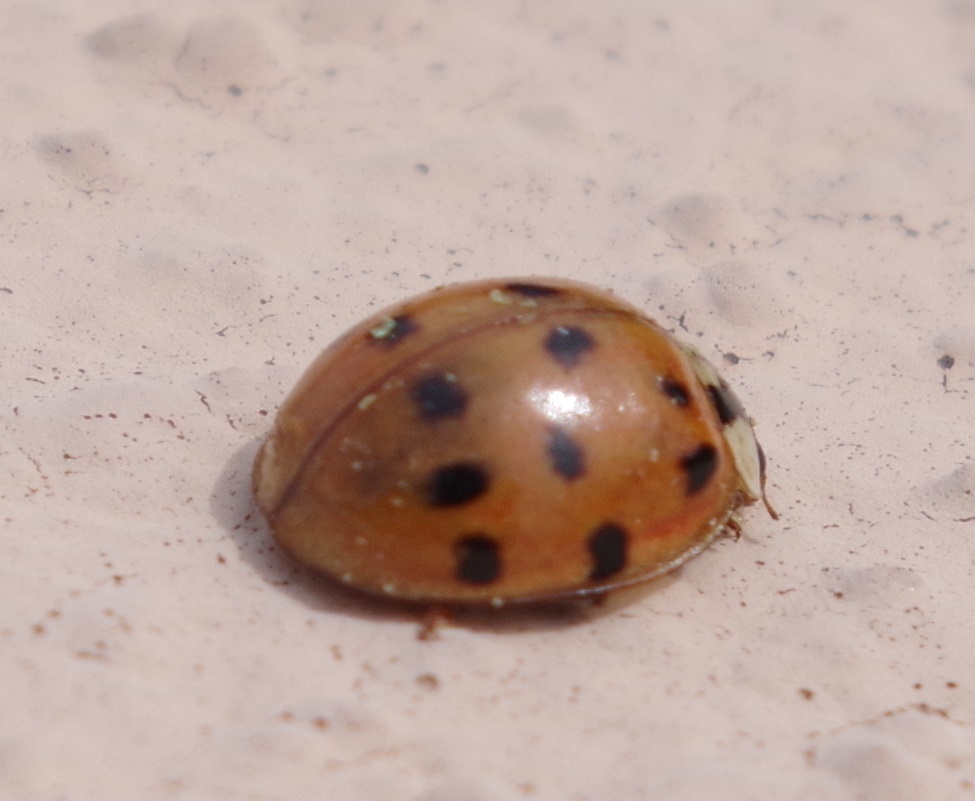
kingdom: Animalia
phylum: Arthropoda
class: Insecta
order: Coleoptera
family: Coccinellidae
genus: Harmonia
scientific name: Harmonia axyridis
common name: Harlequin ladybird
